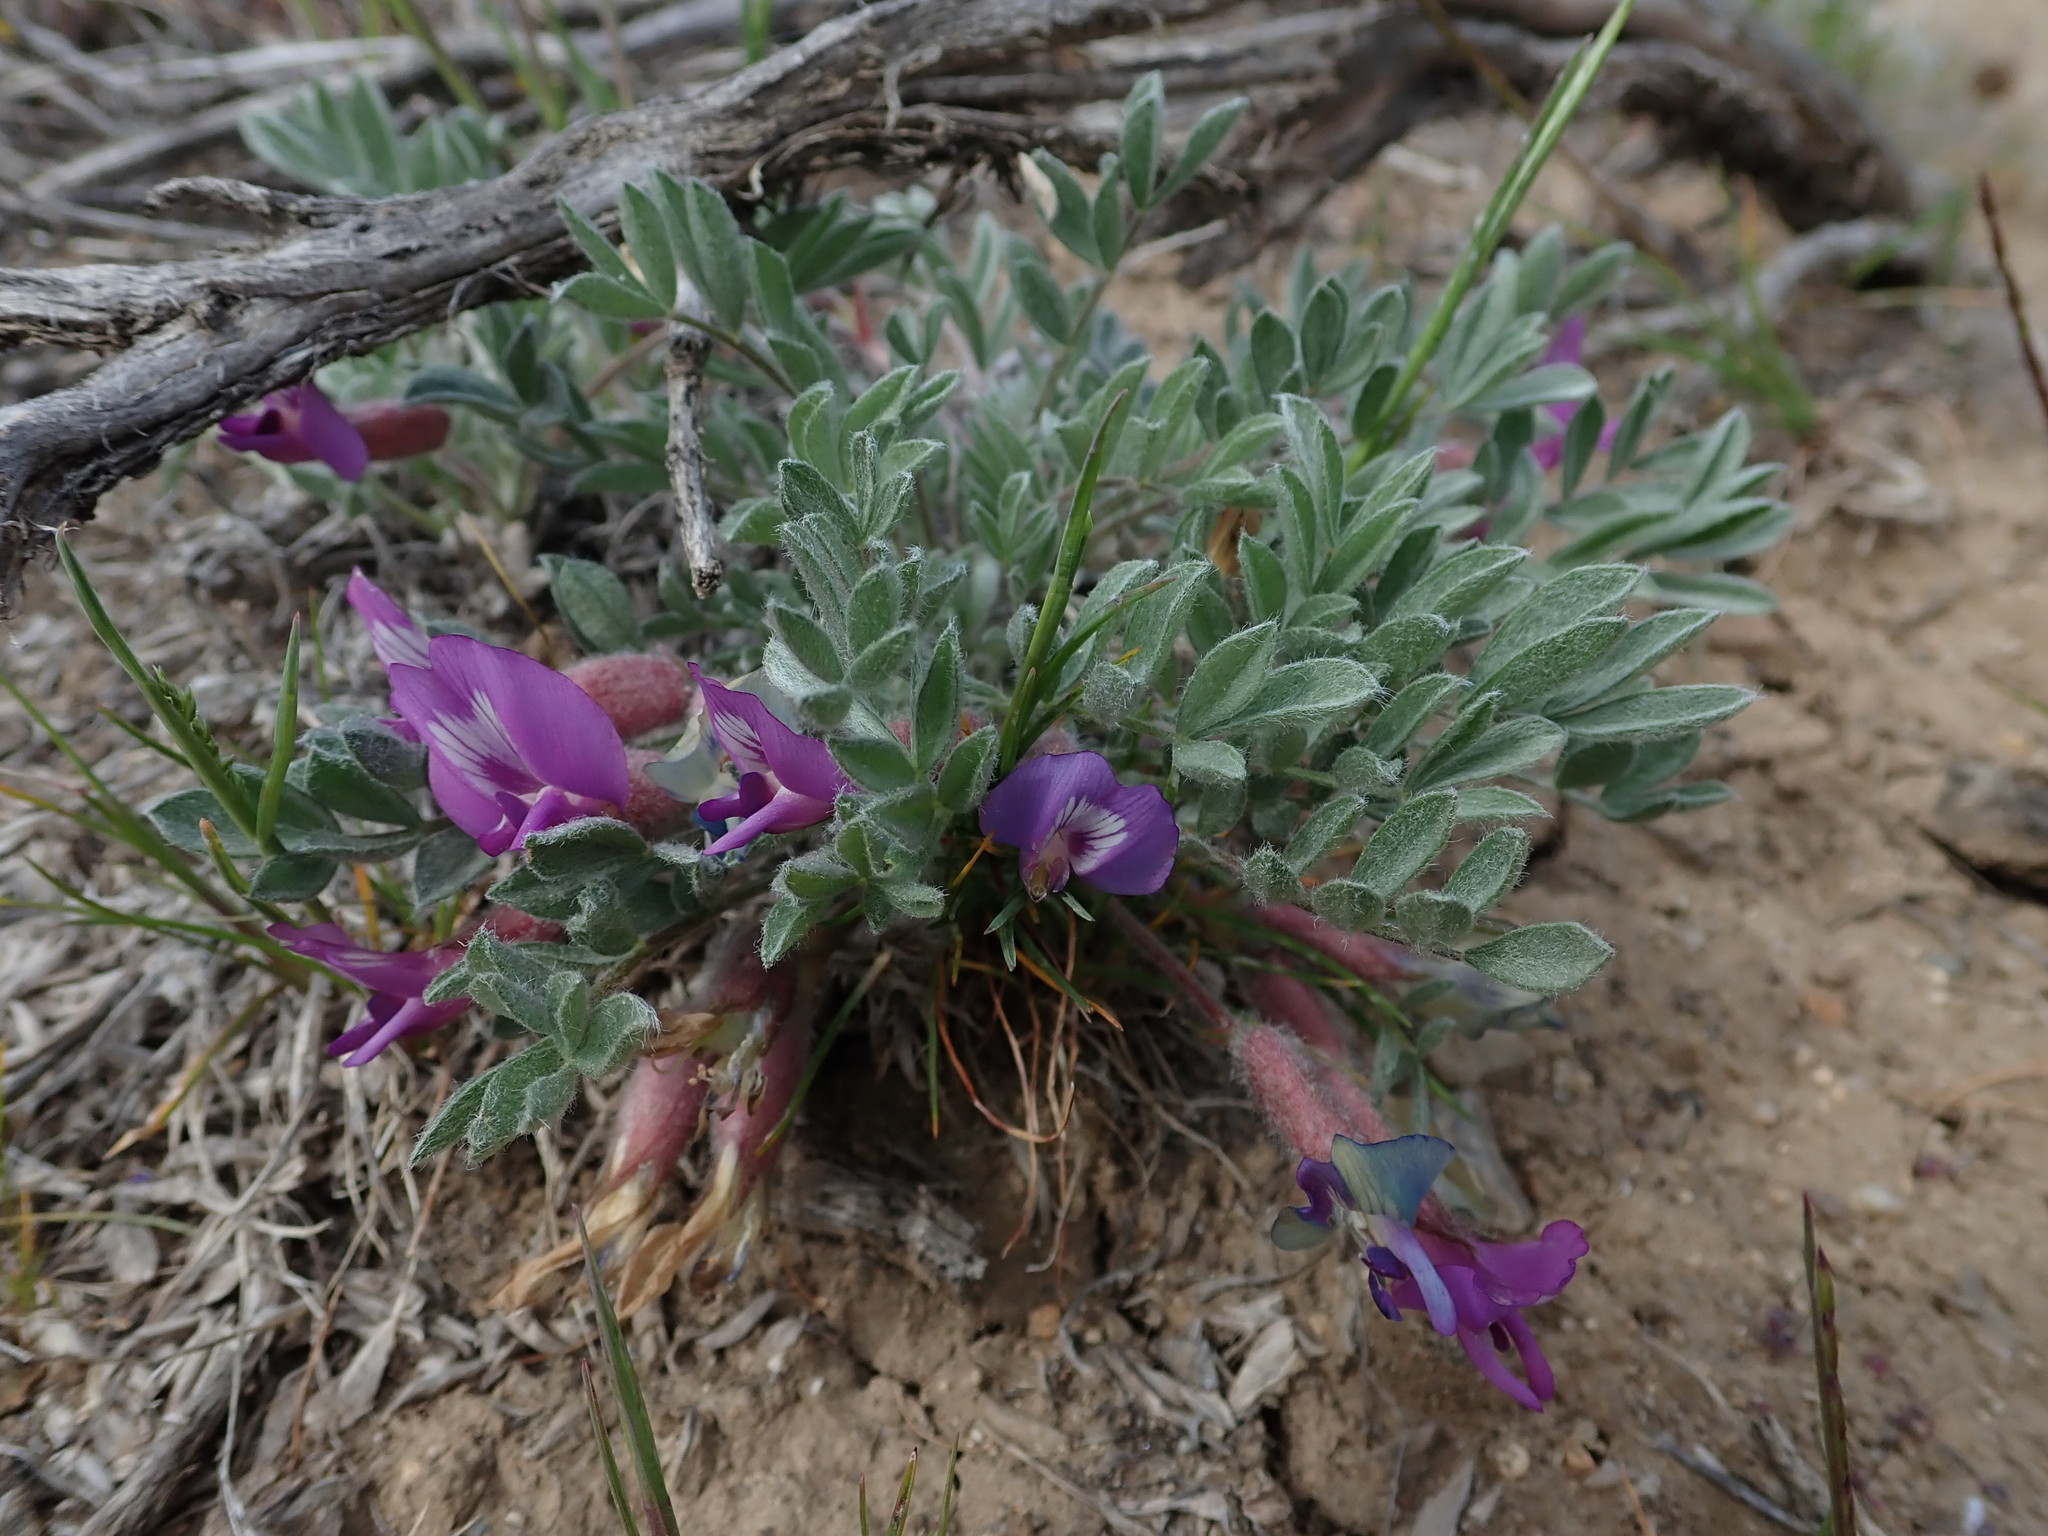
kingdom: Plantae
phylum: Tracheophyta
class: Magnoliopsida
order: Fabales
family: Fabaceae
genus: Astragalus
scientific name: Astragalus purshii
